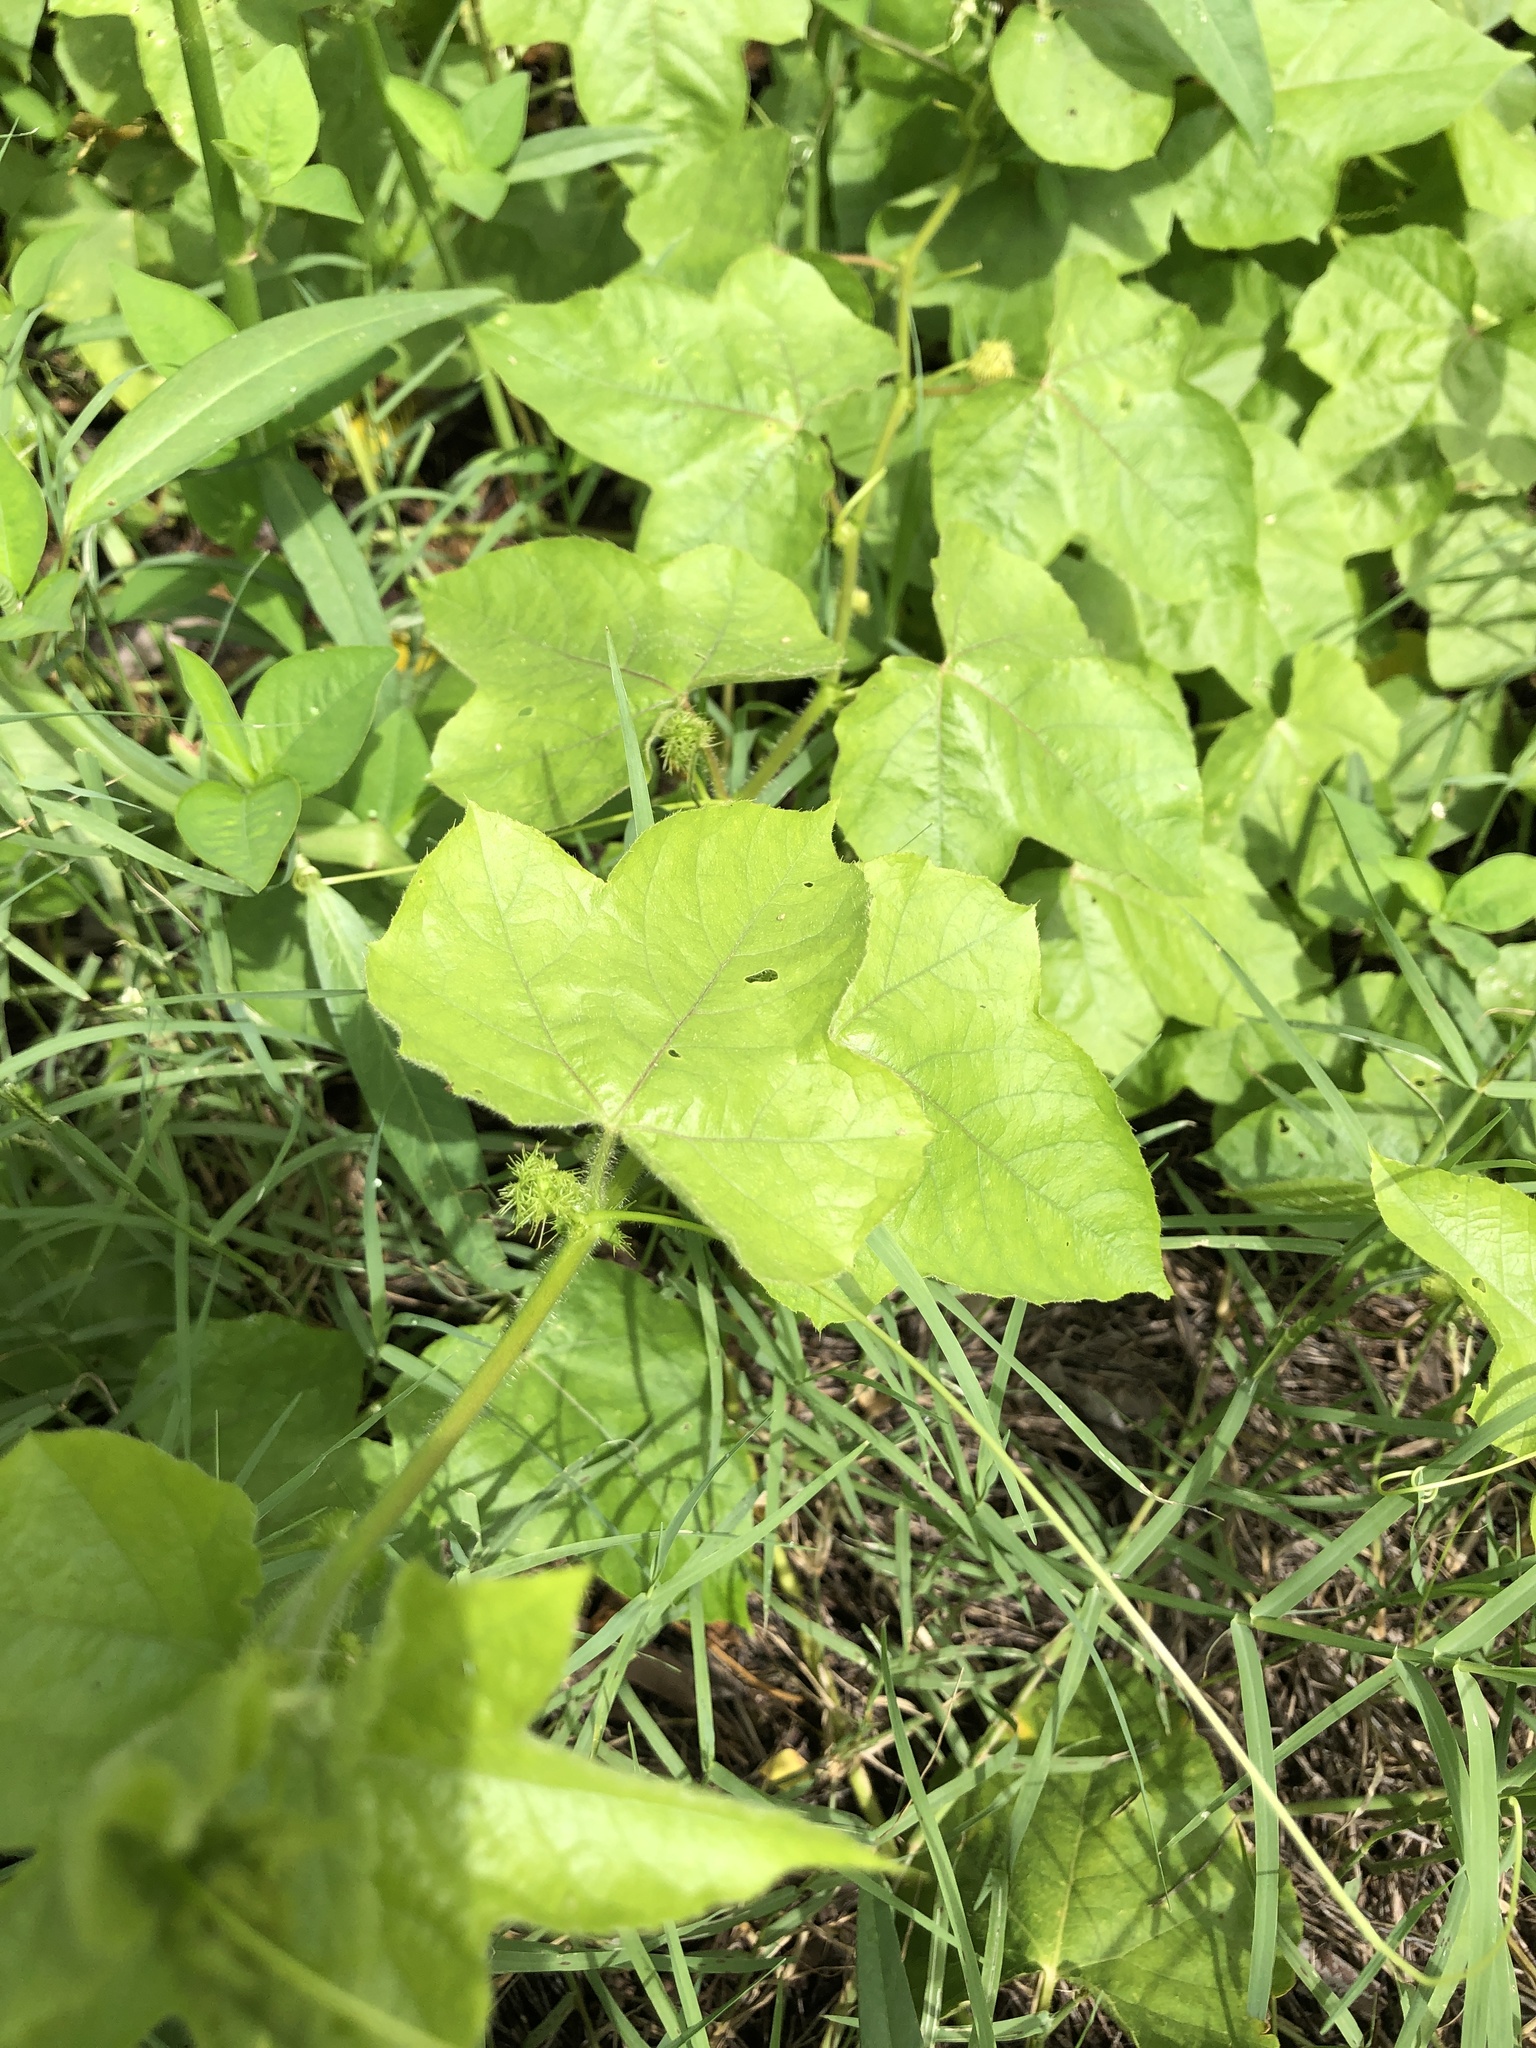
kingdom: Plantae
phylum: Tracheophyta
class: Magnoliopsida
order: Malpighiales
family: Passifloraceae
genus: Passiflora
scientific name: Passiflora foetida
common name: Fetid passionflower
